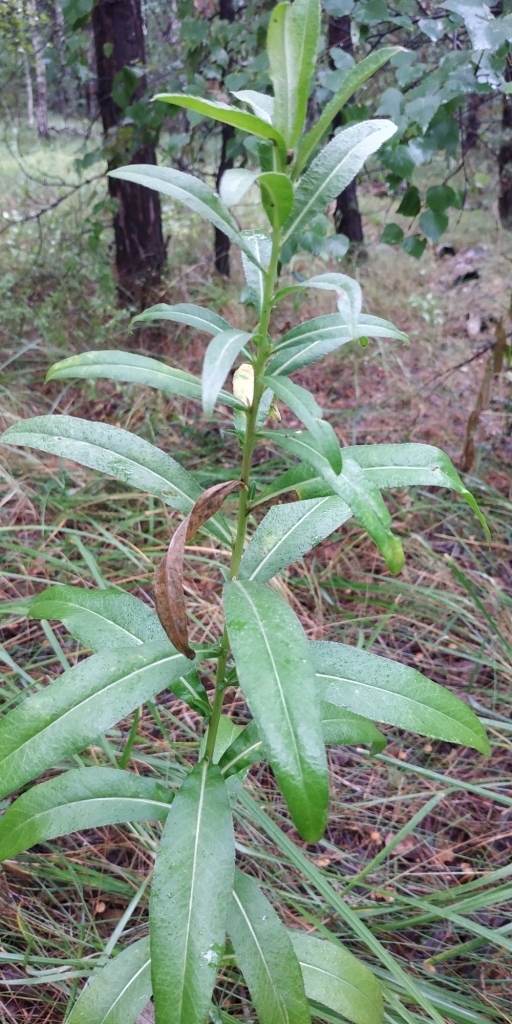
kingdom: Plantae
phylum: Tracheophyta
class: Magnoliopsida
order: Asterales
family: Asteraceae
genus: Cirsium
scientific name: Cirsium arvense
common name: Creeping thistle
